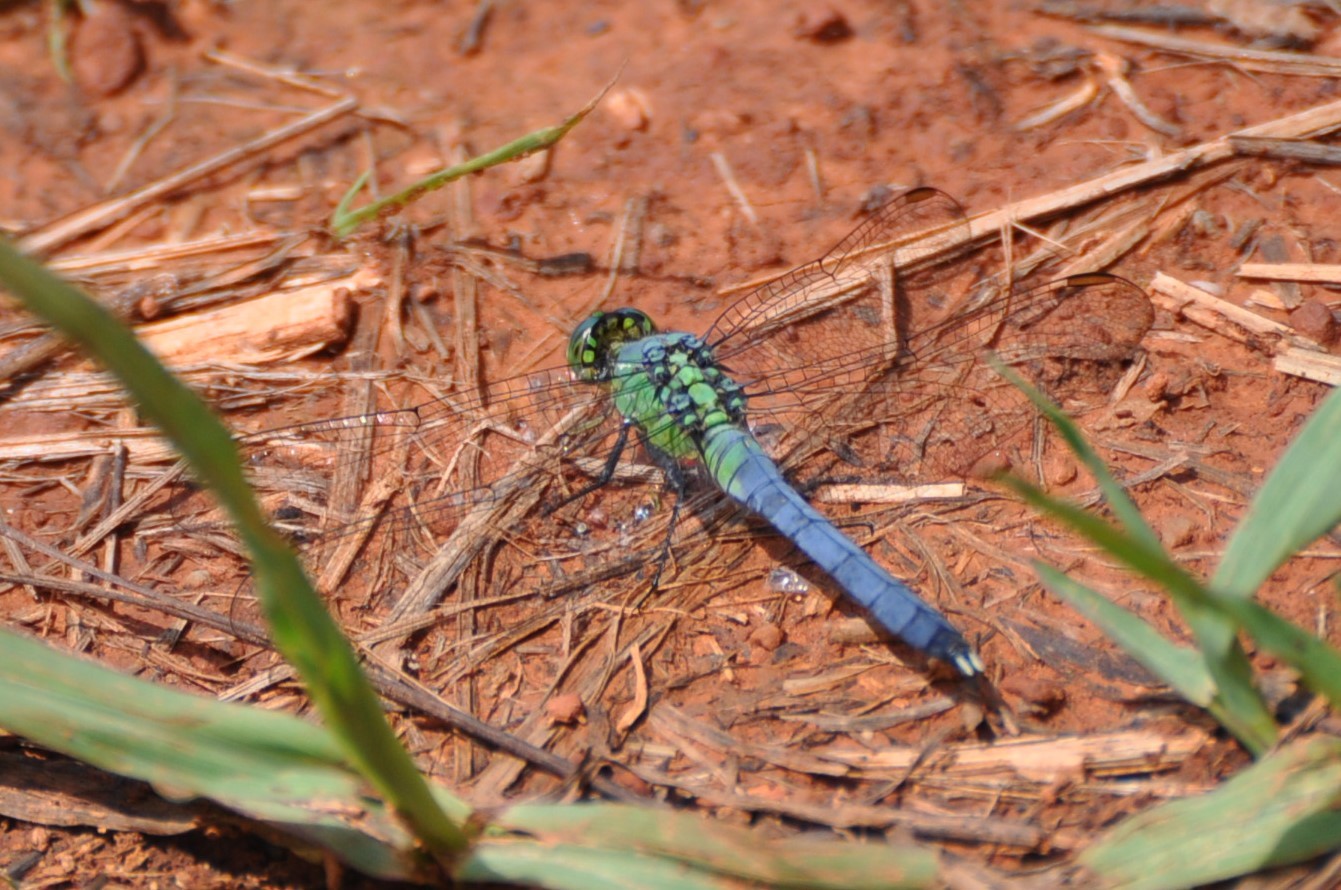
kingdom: Animalia
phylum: Arthropoda
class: Insecta
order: Odonata
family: Libellulidae
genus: Erythemis
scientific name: Erythemis simplicicollis
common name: Eastern pondhawk
